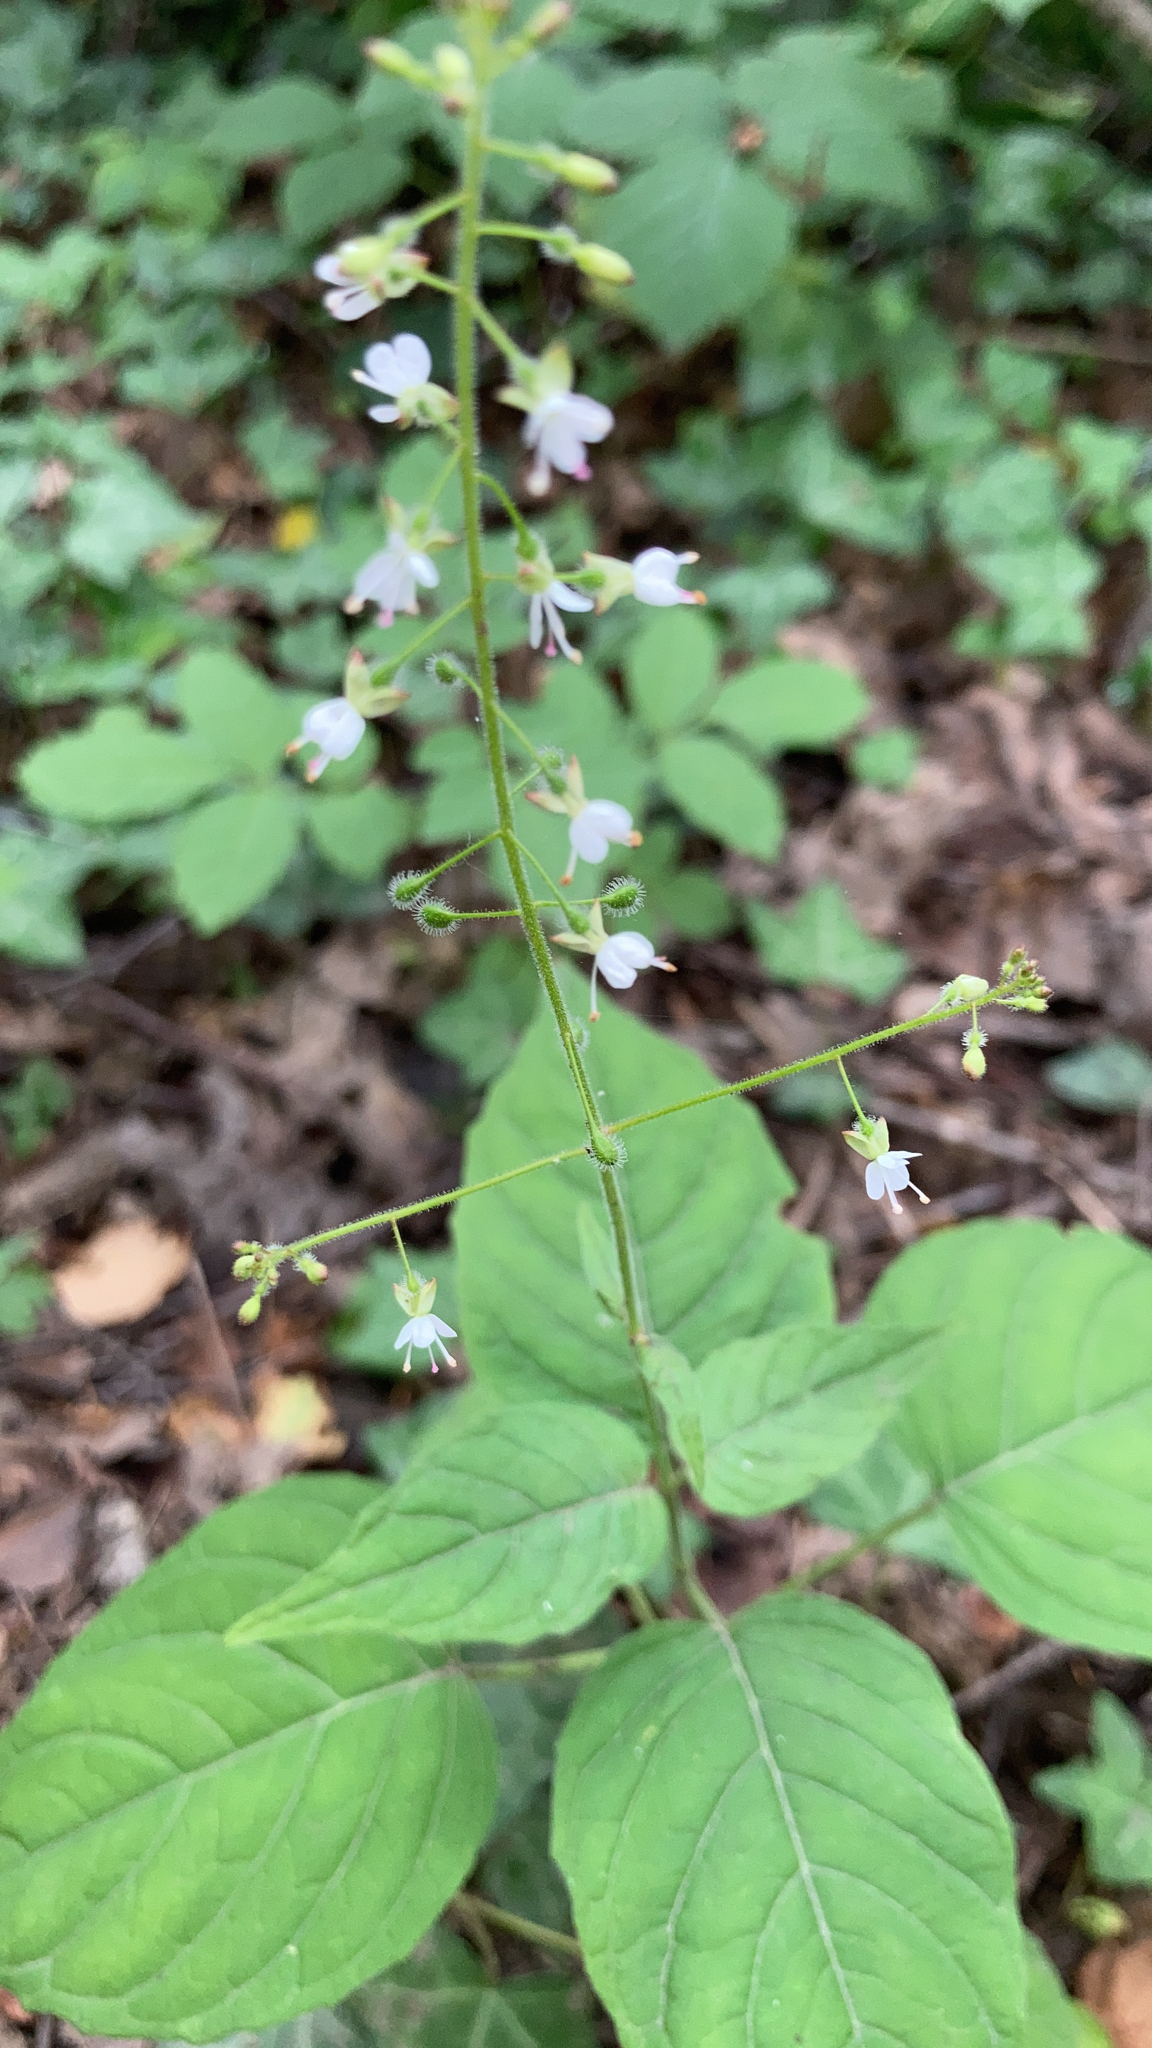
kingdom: Plantae
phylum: Tracheophyta
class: Magnoliopsida
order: Myrtales
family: Onagraceae
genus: Circaea
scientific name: Circaea lutetiana
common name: Enchanter's-nightshade
